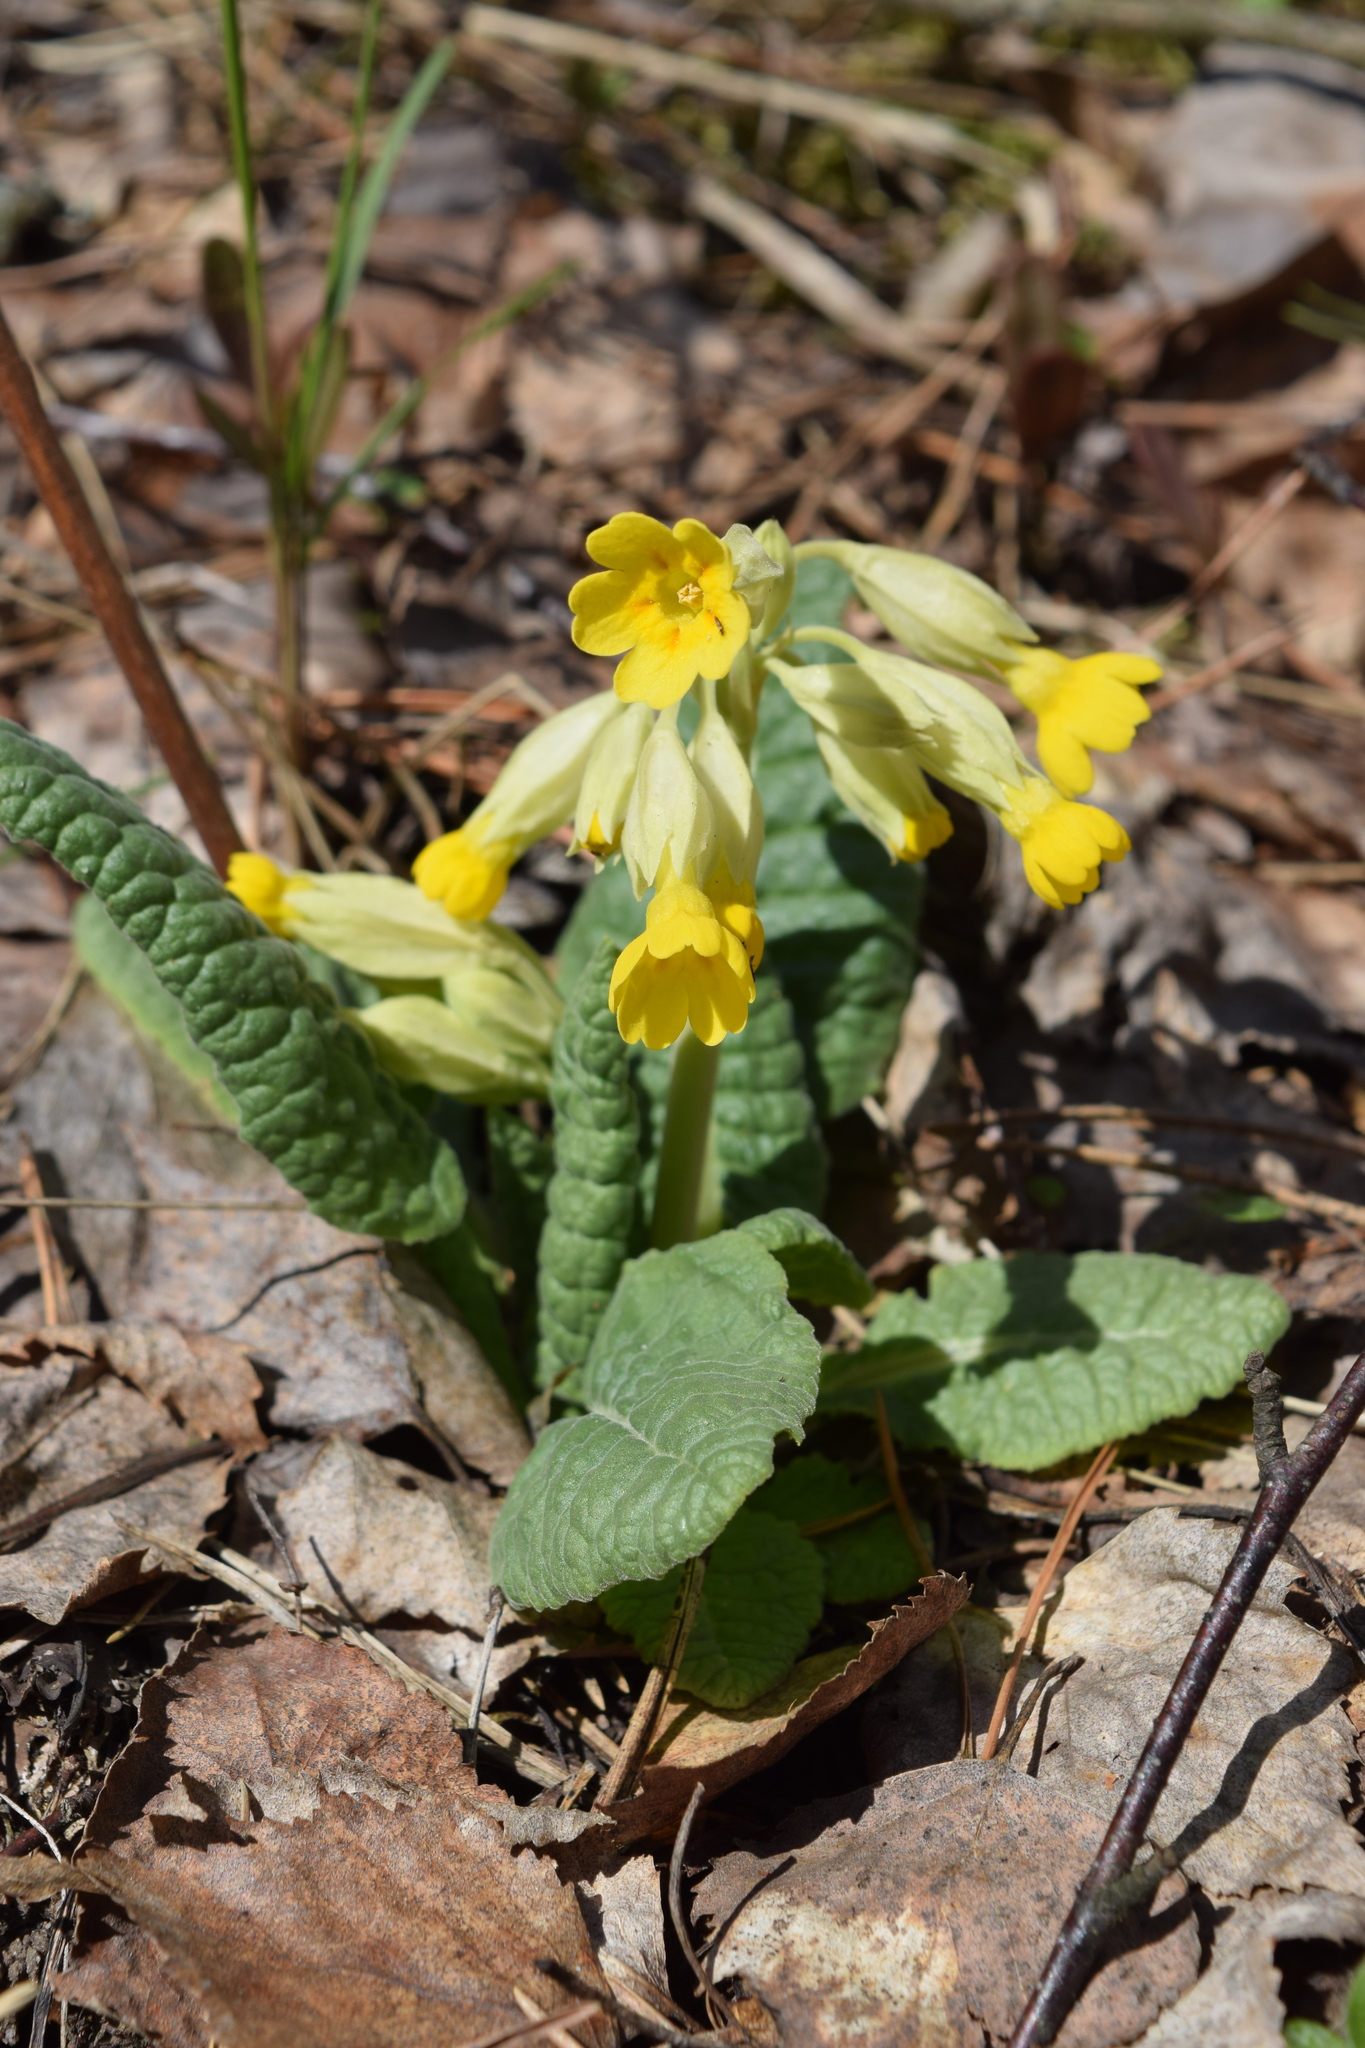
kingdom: Plantae
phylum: Tracheophyta
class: Magnoliopsida
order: Ericales
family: Primulaceae
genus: Primula
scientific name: Primula veris
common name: Cowslip
